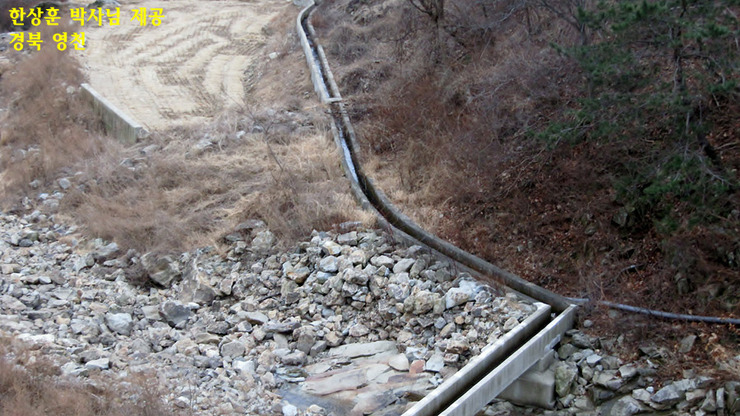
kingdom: Animalia
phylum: Chordata
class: Amphibia
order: Anura
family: Ranidae
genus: Rana
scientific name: Rana uenoi
